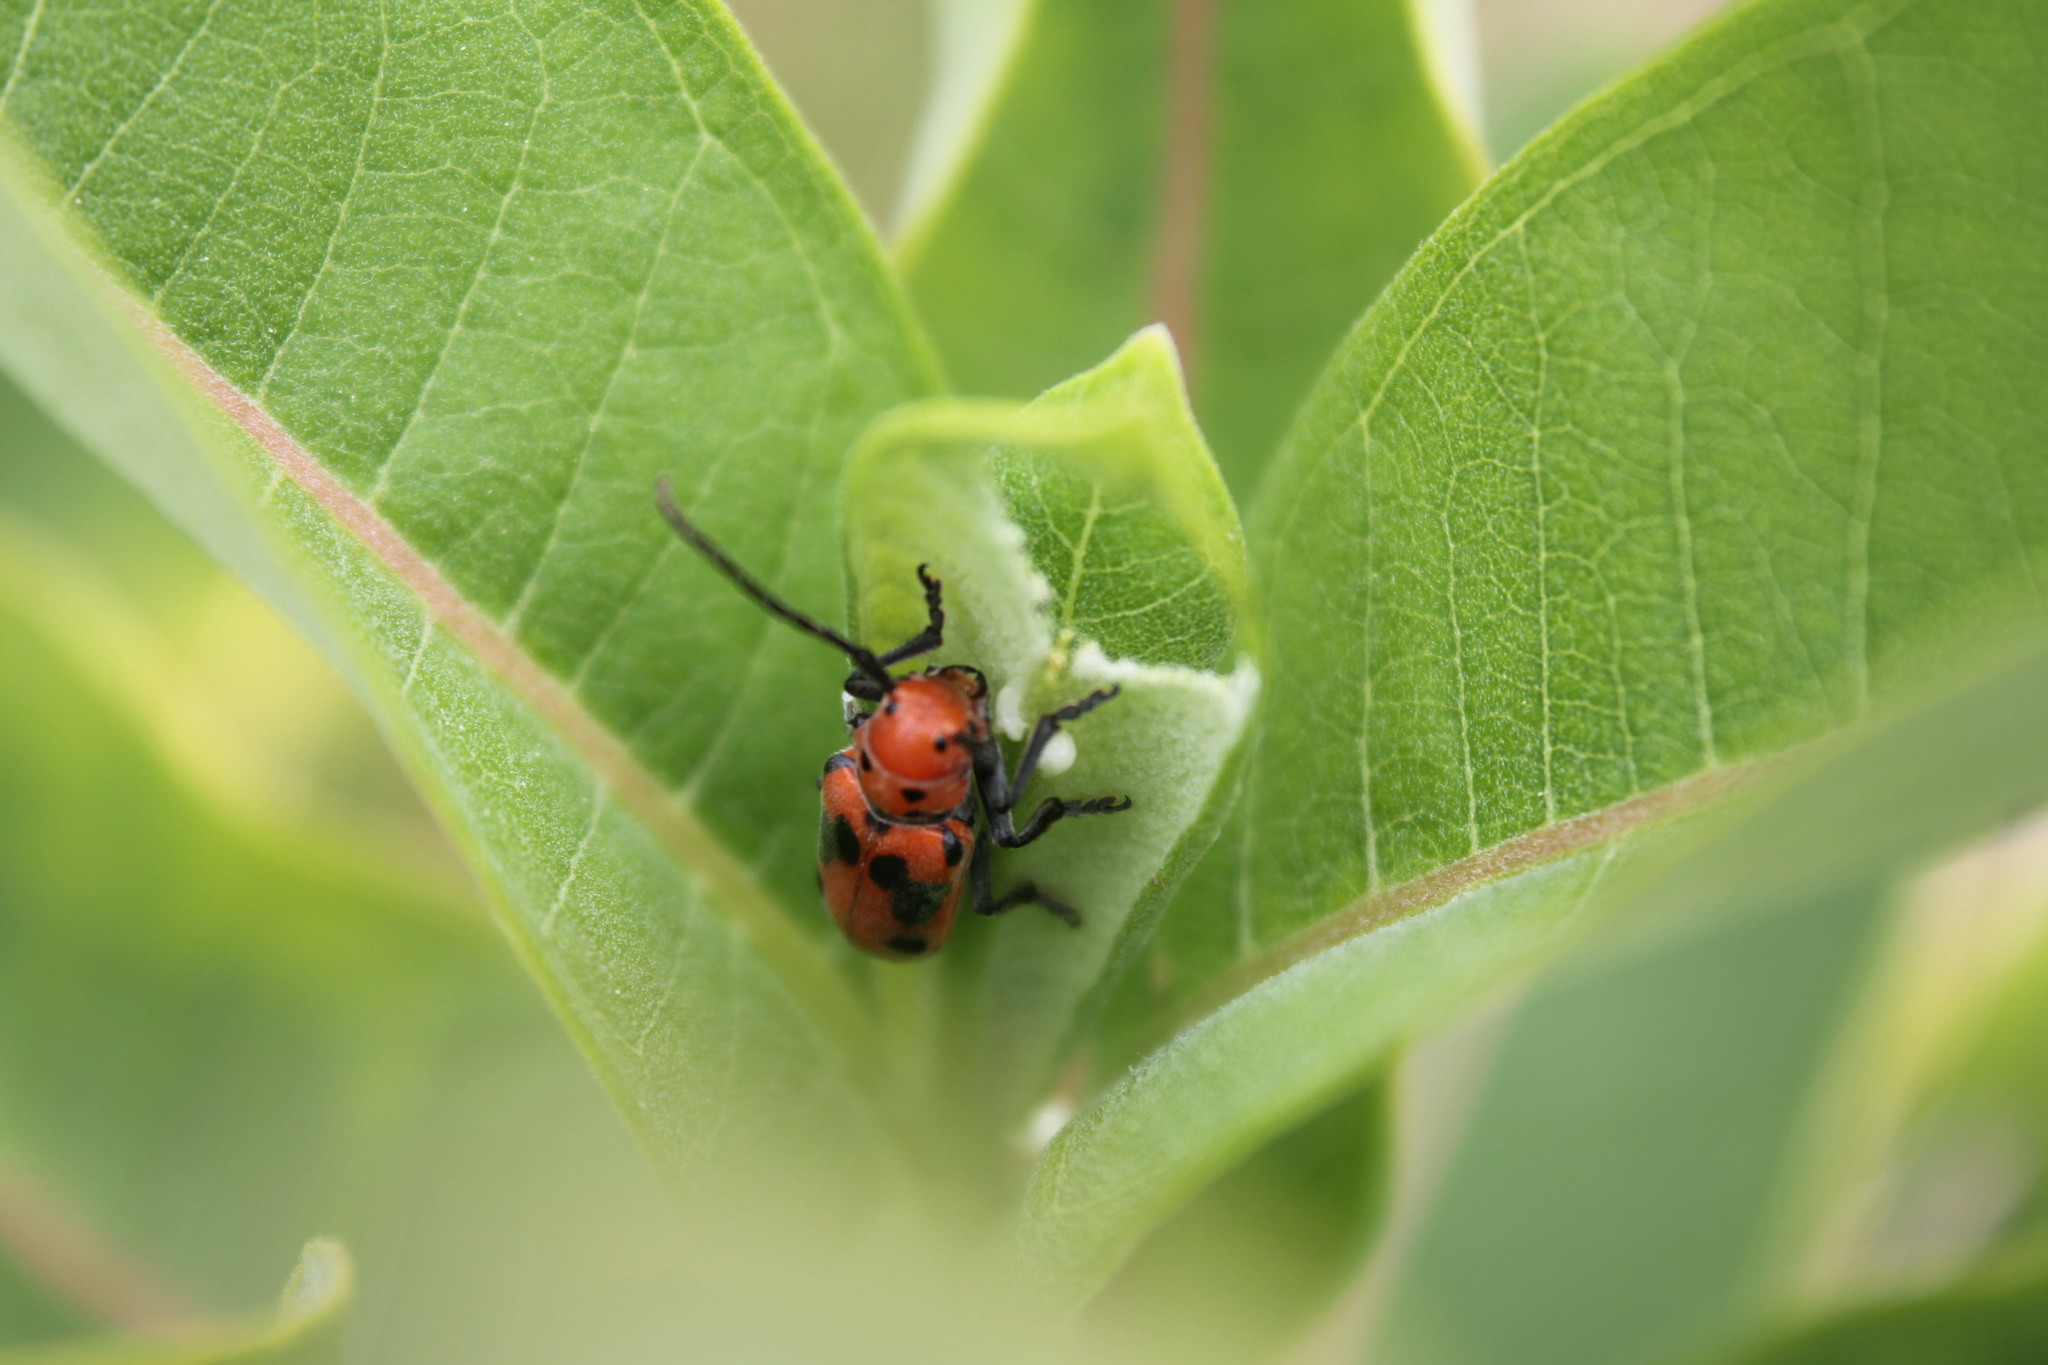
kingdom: Animalia
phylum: Arthropoda
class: Insecta
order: Coleoptera
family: Cerambycidae
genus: Tetraopes
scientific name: Tetraopes tetrophthalmus
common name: Red milkweed beetle
